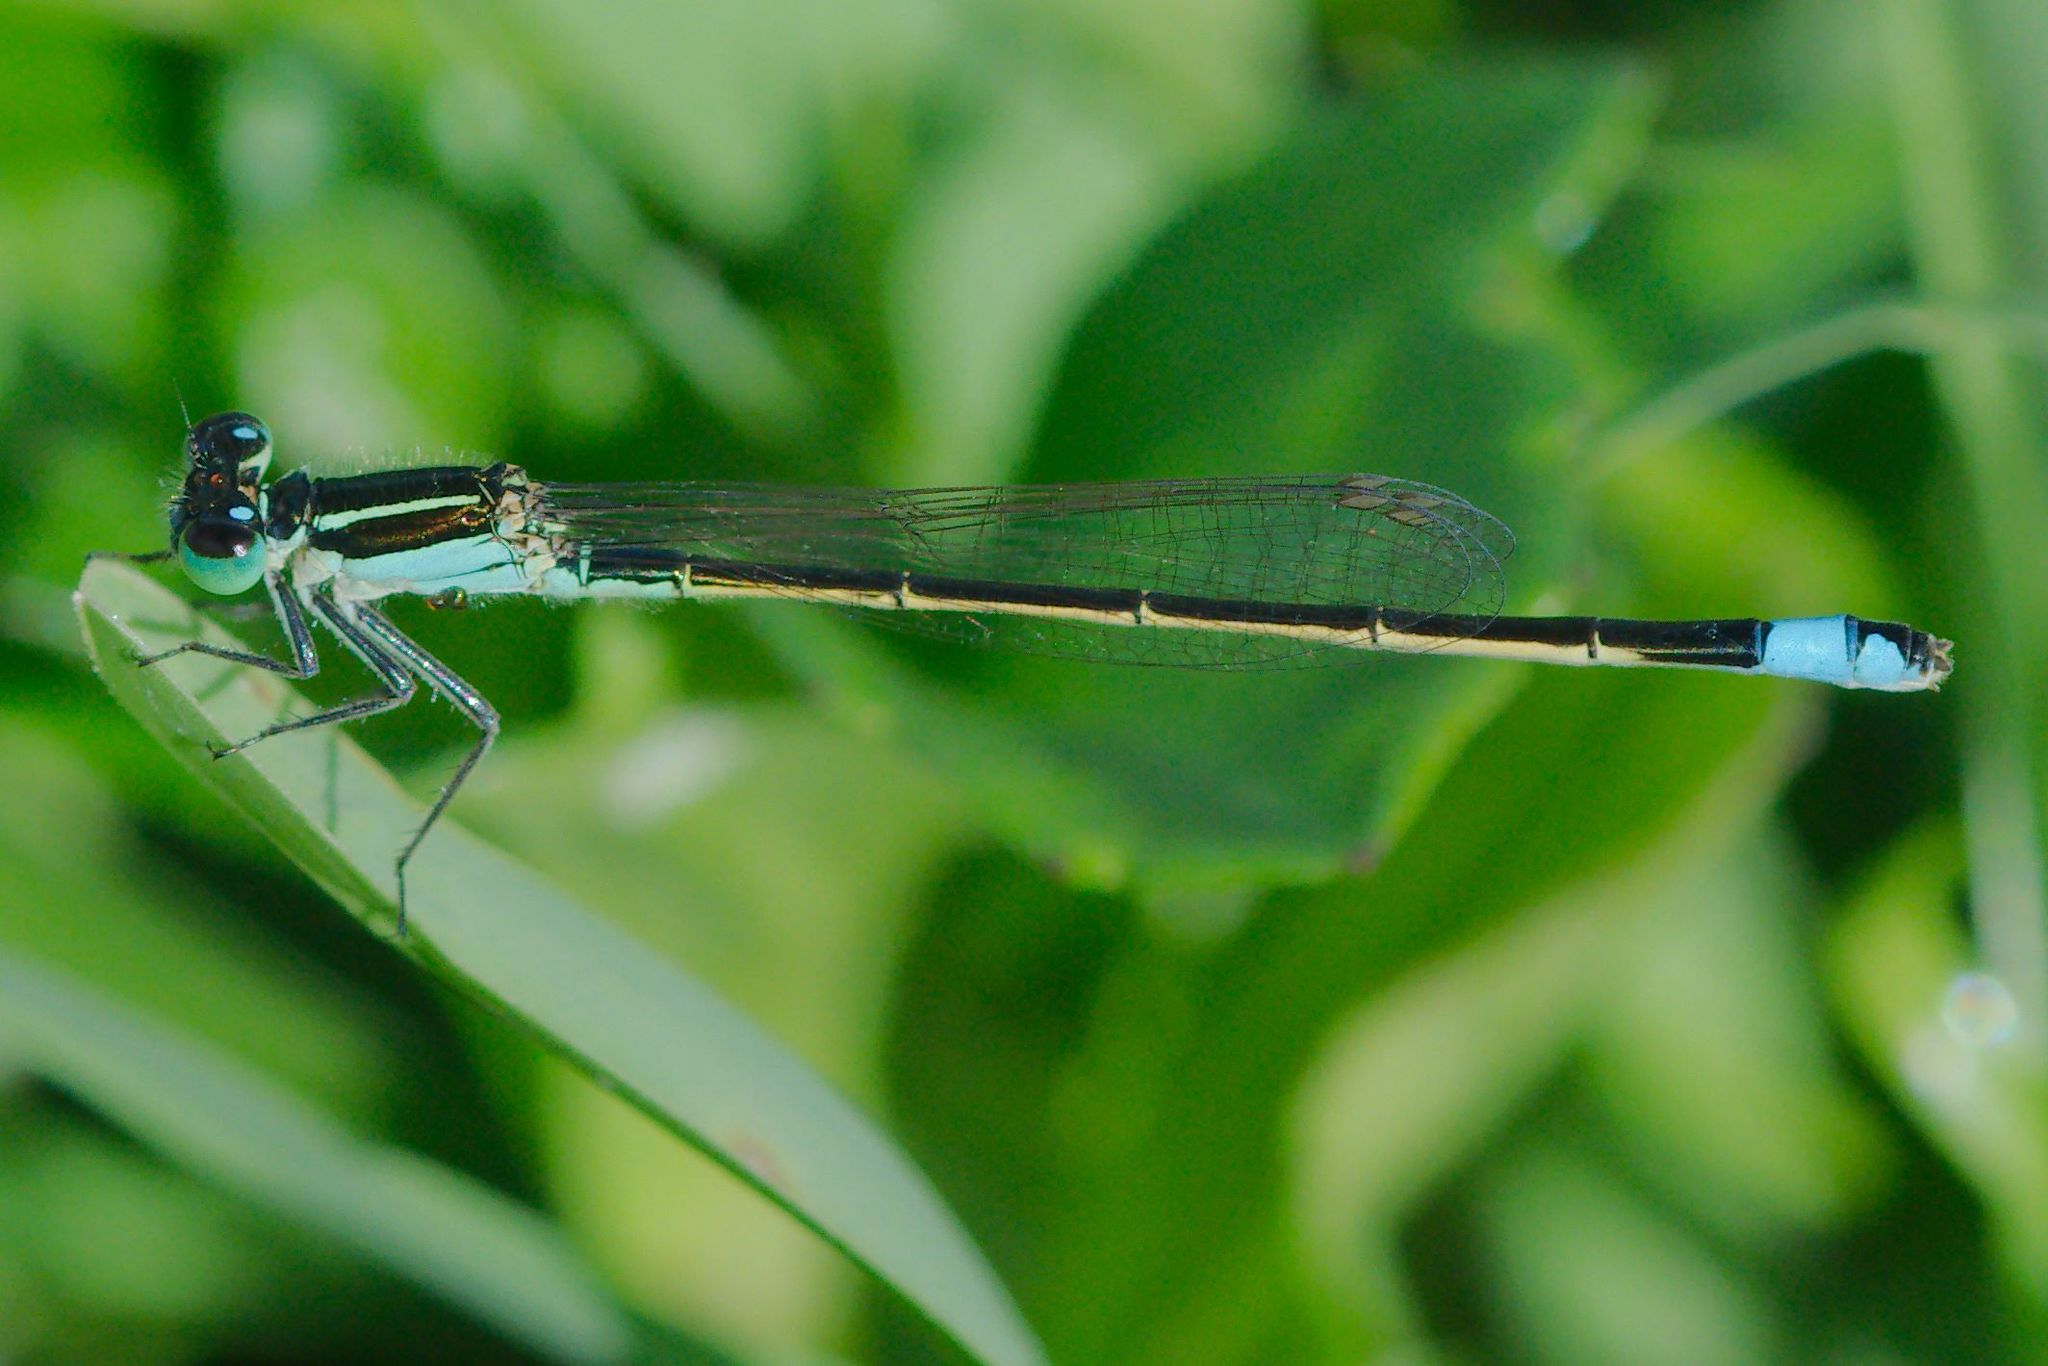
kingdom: Animalia
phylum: Arthropoda
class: Insecta
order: Odonata
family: Coenagrionidae
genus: Ischnura
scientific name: Ischnura ramburii
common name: Rambur's forktail
